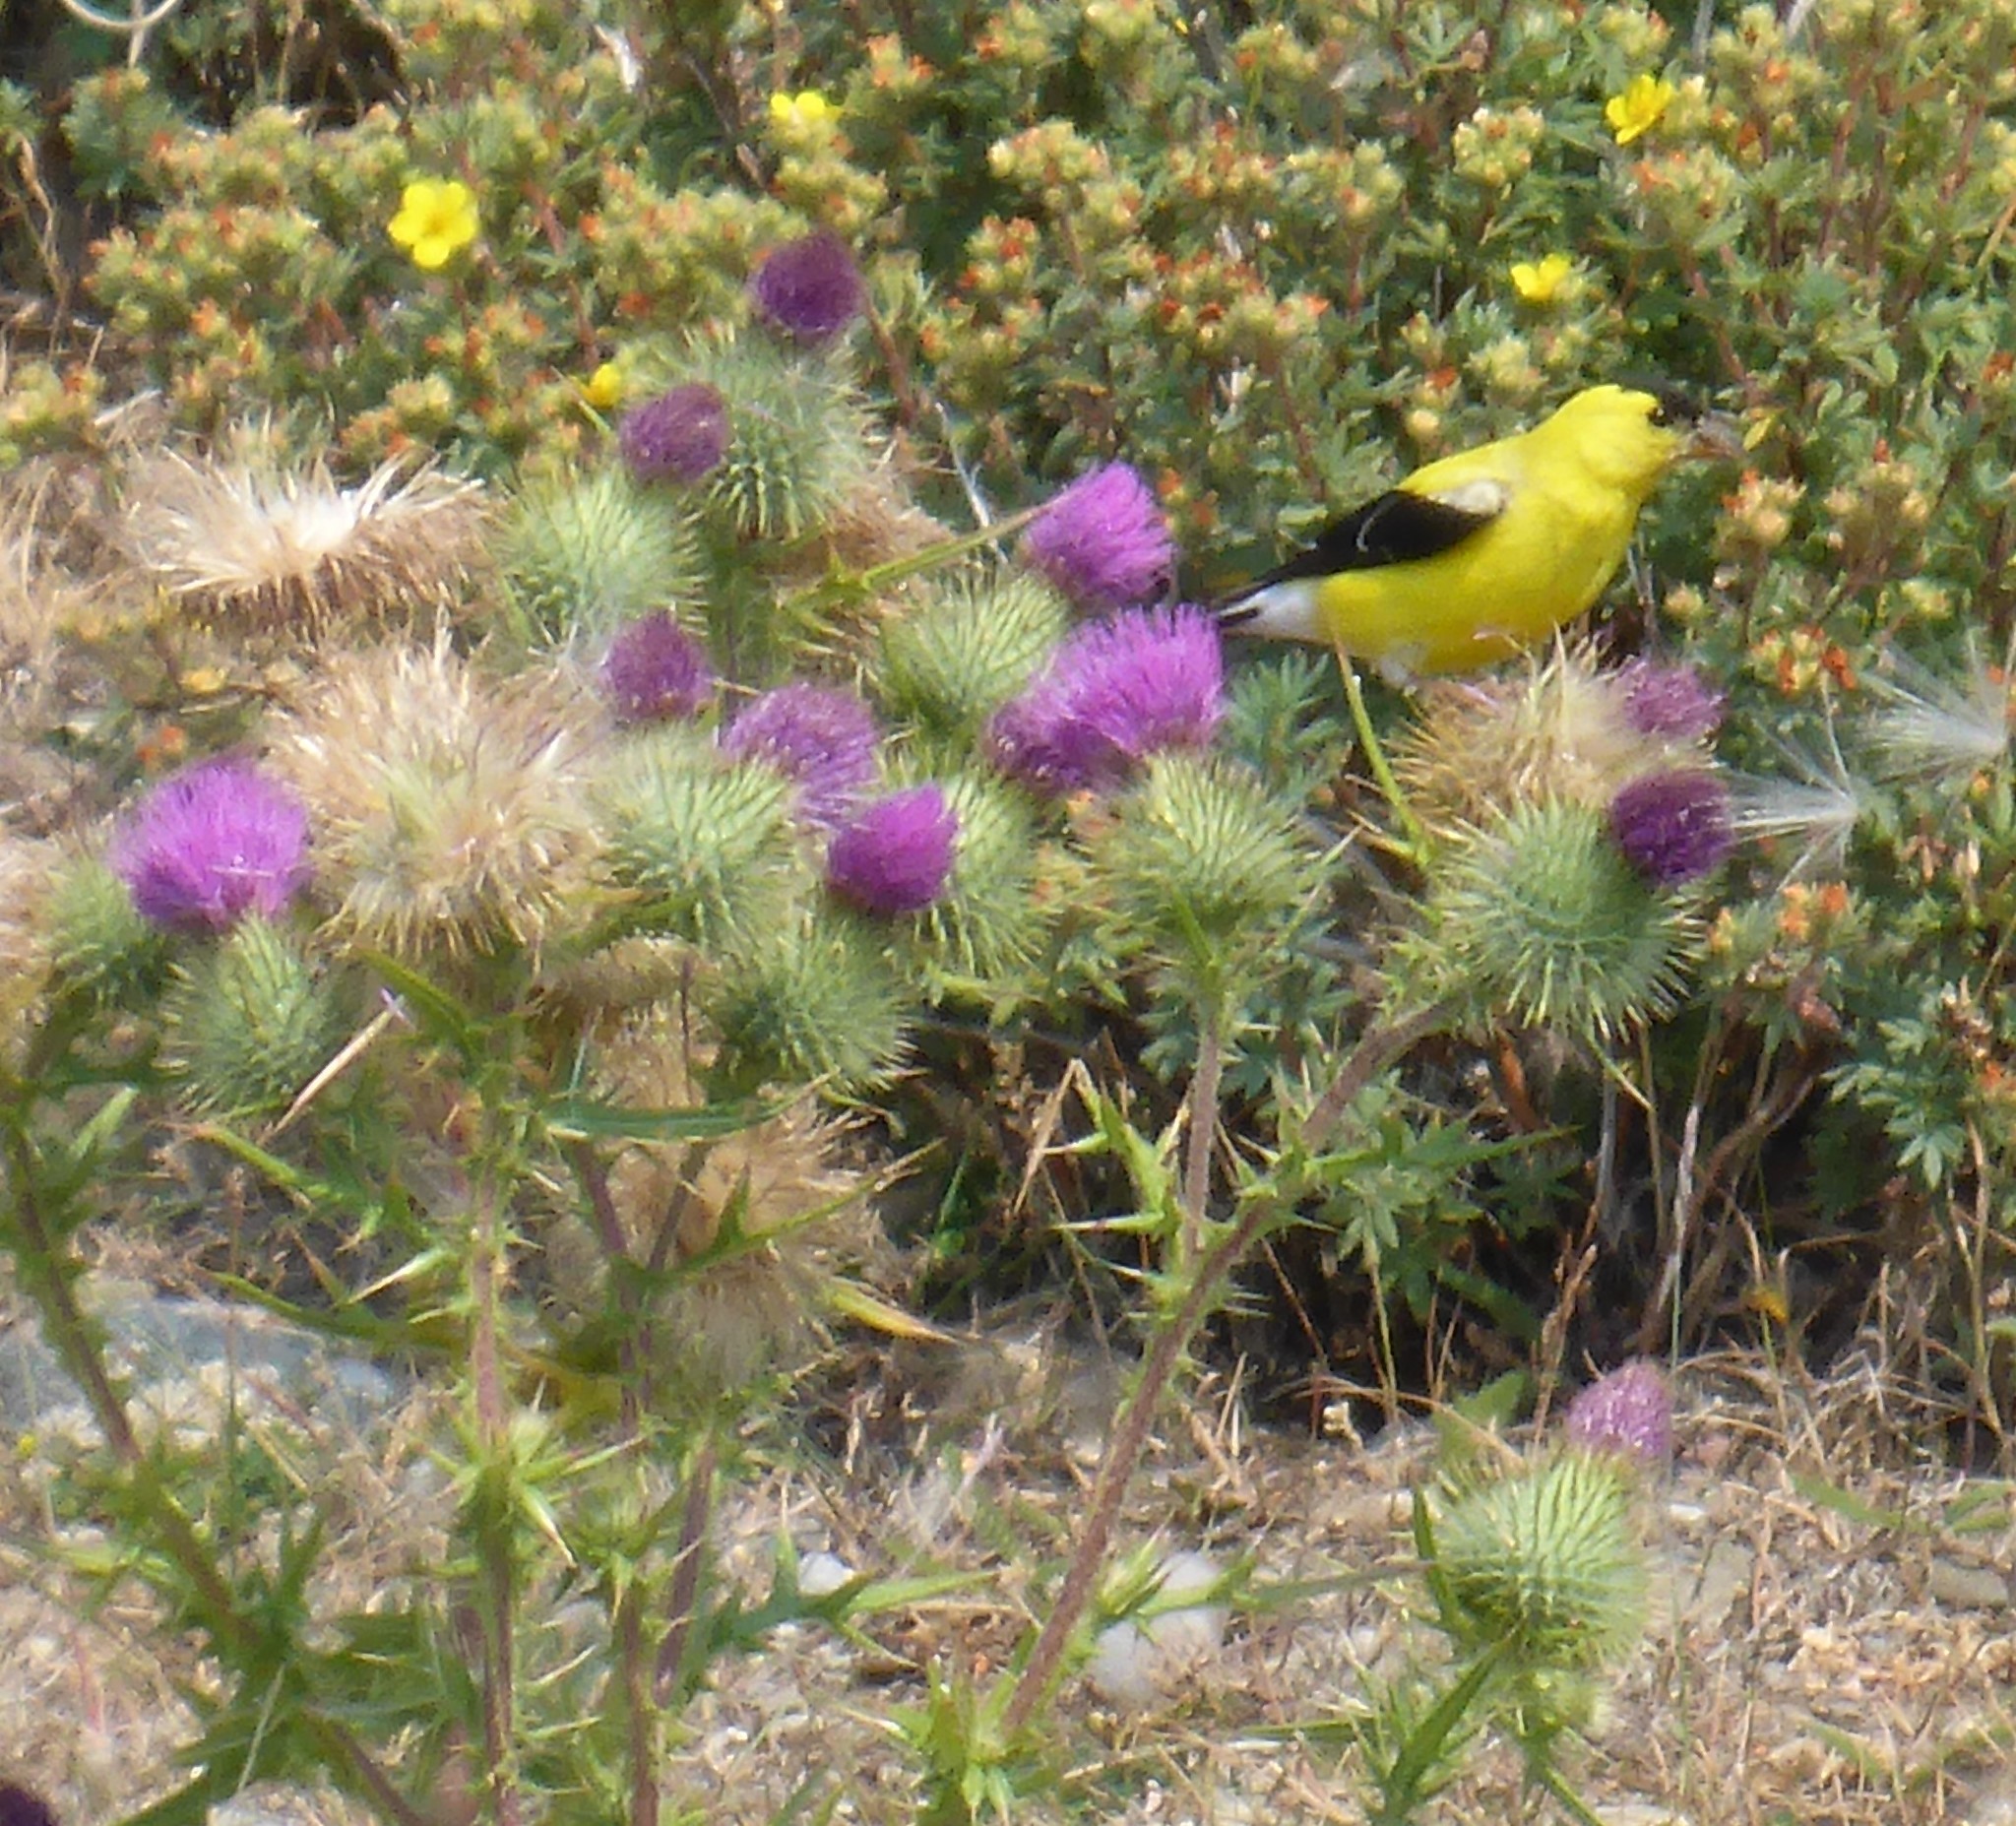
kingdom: Animalia
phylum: Chordata
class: Aves
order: Passeriformes
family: Fringillidae
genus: Spinus
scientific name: Spinus tristis
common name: American goldfinch
